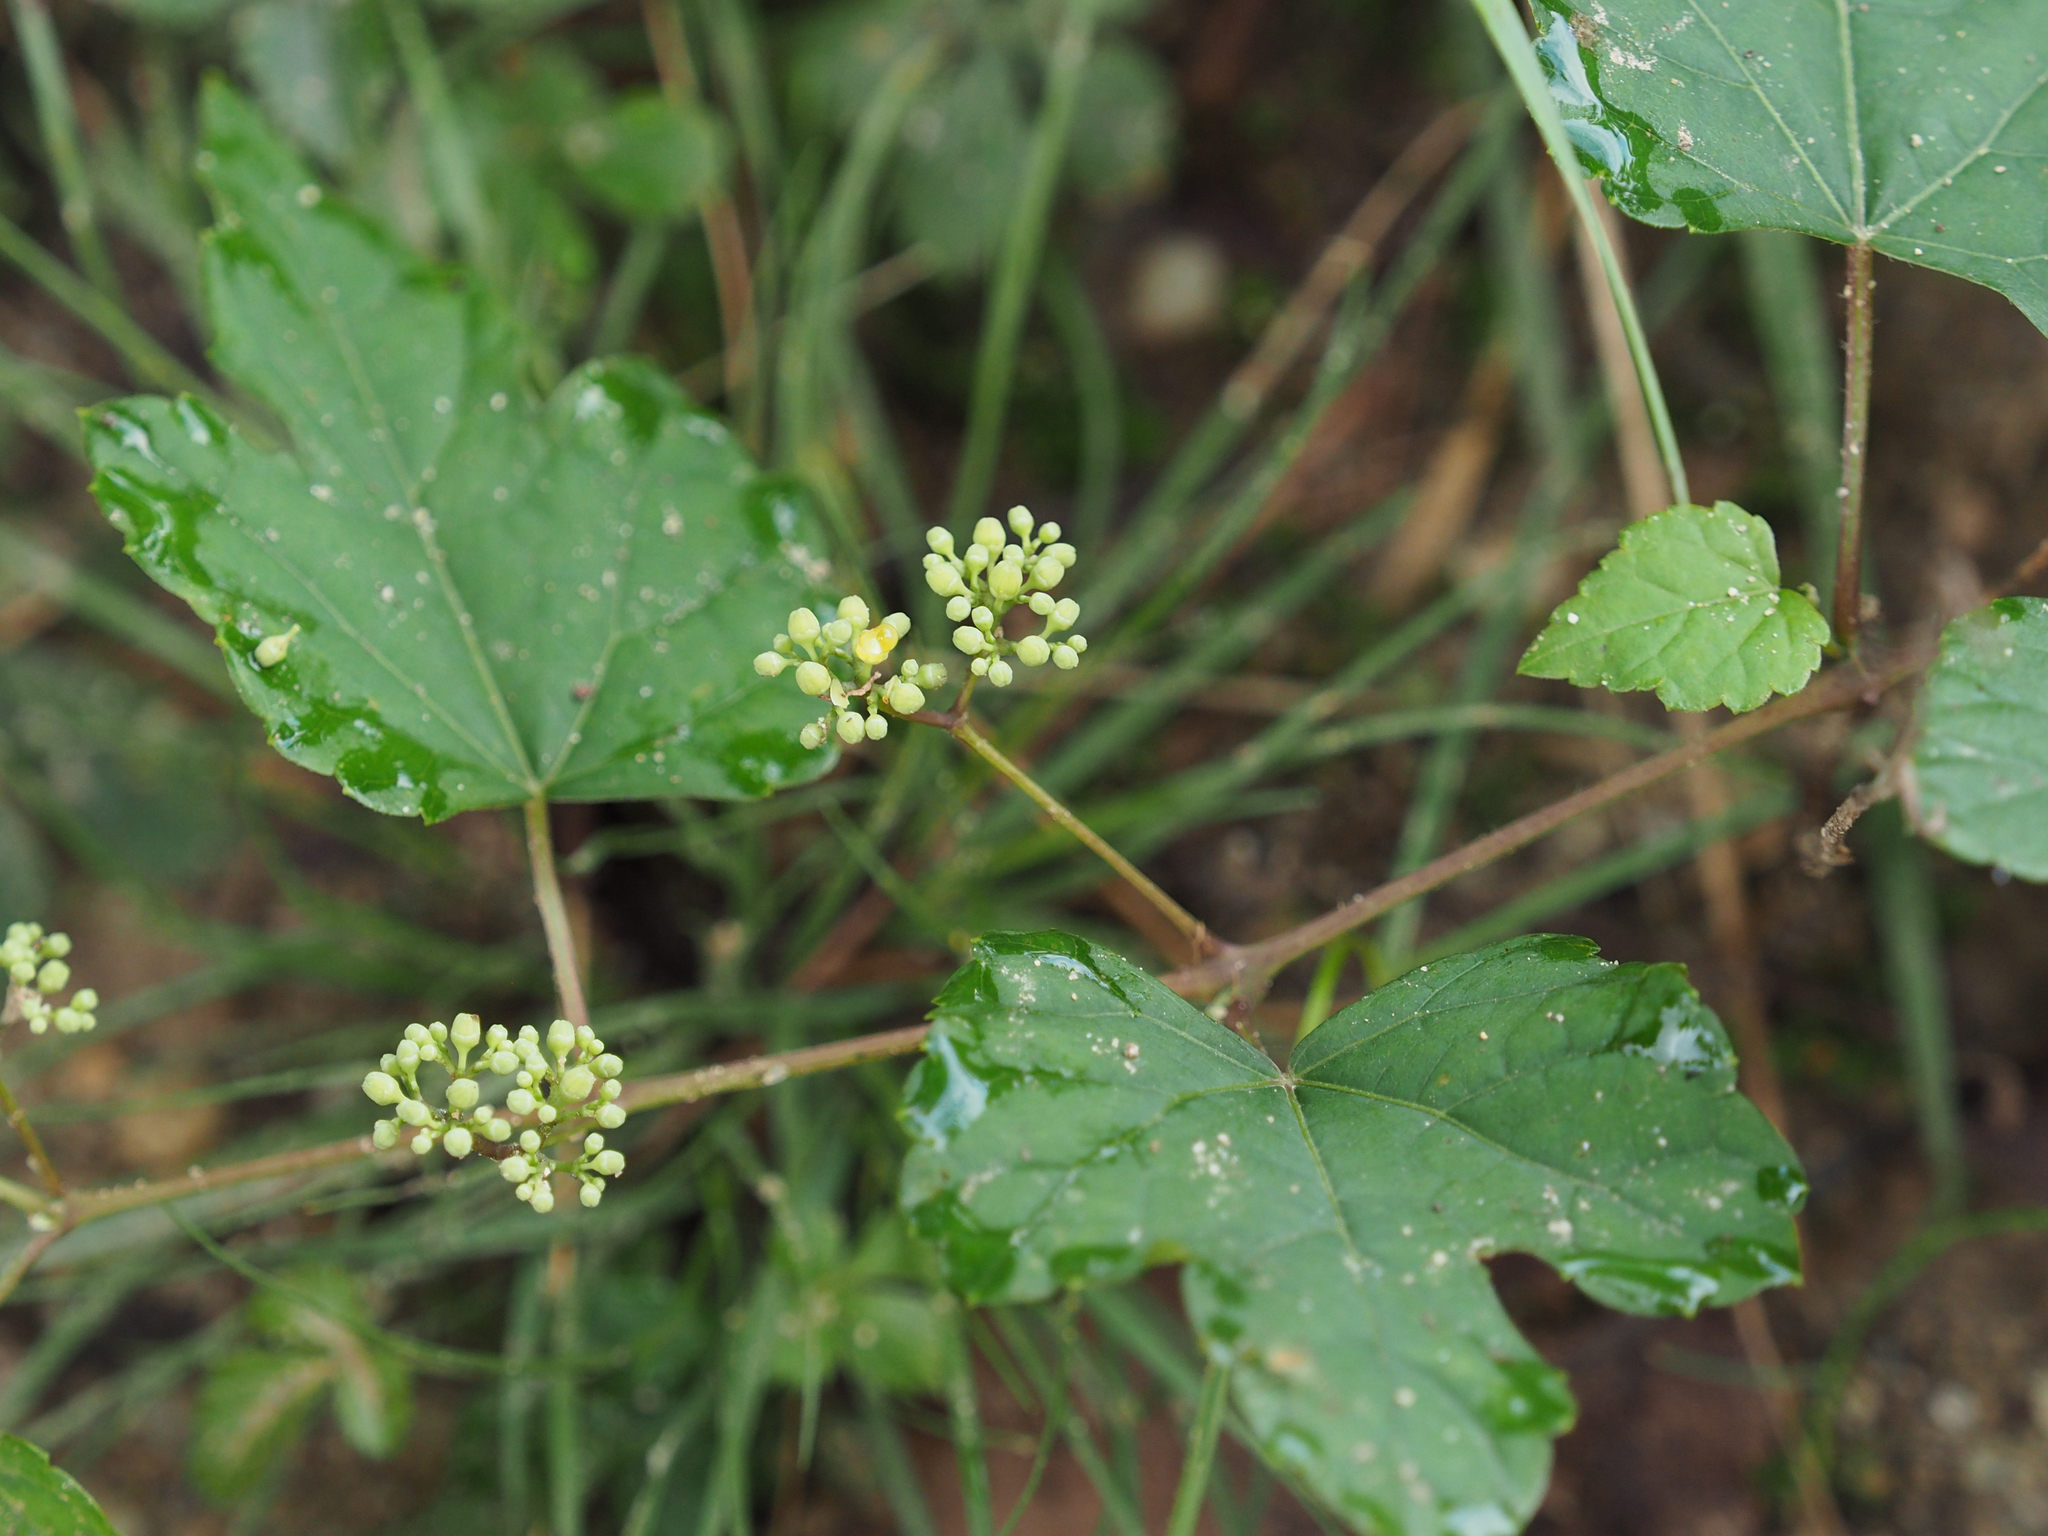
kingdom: Plantae
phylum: Tracheophyta
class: Magnoliopsida
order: Vitales
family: Vitaceae
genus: Ampelopsis
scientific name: Ampelopsis glandulosa
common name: Amur peppervine
